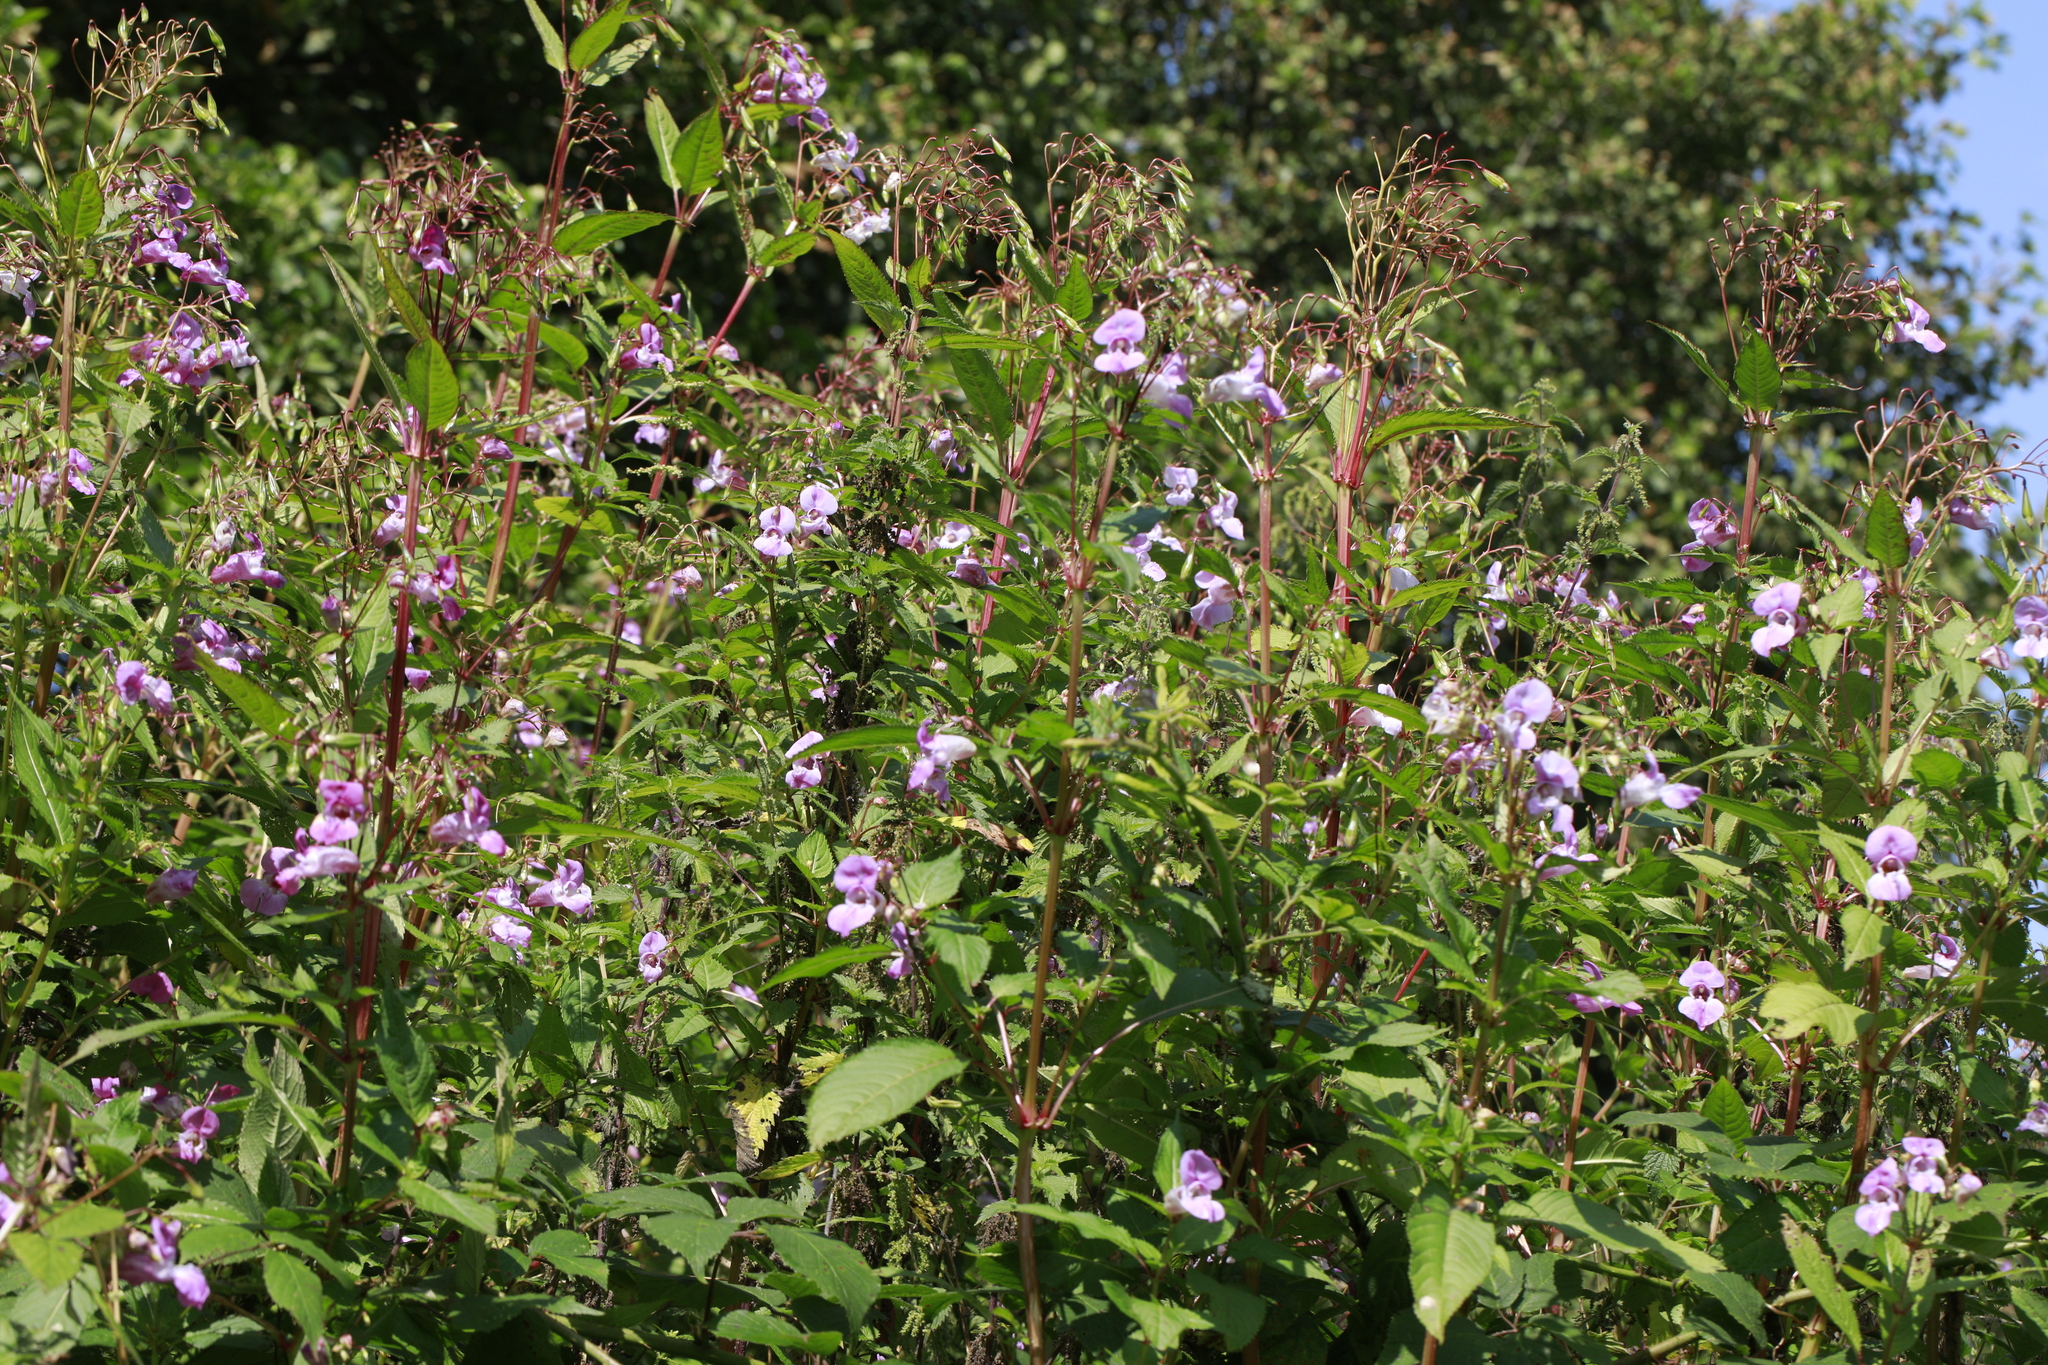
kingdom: Plantae
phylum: Tracheophyta
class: Magnoliopsida
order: Ericales
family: Balsaminaceae
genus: Impatiens
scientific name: Impatiens glandulifera
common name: Himalayan balsam
